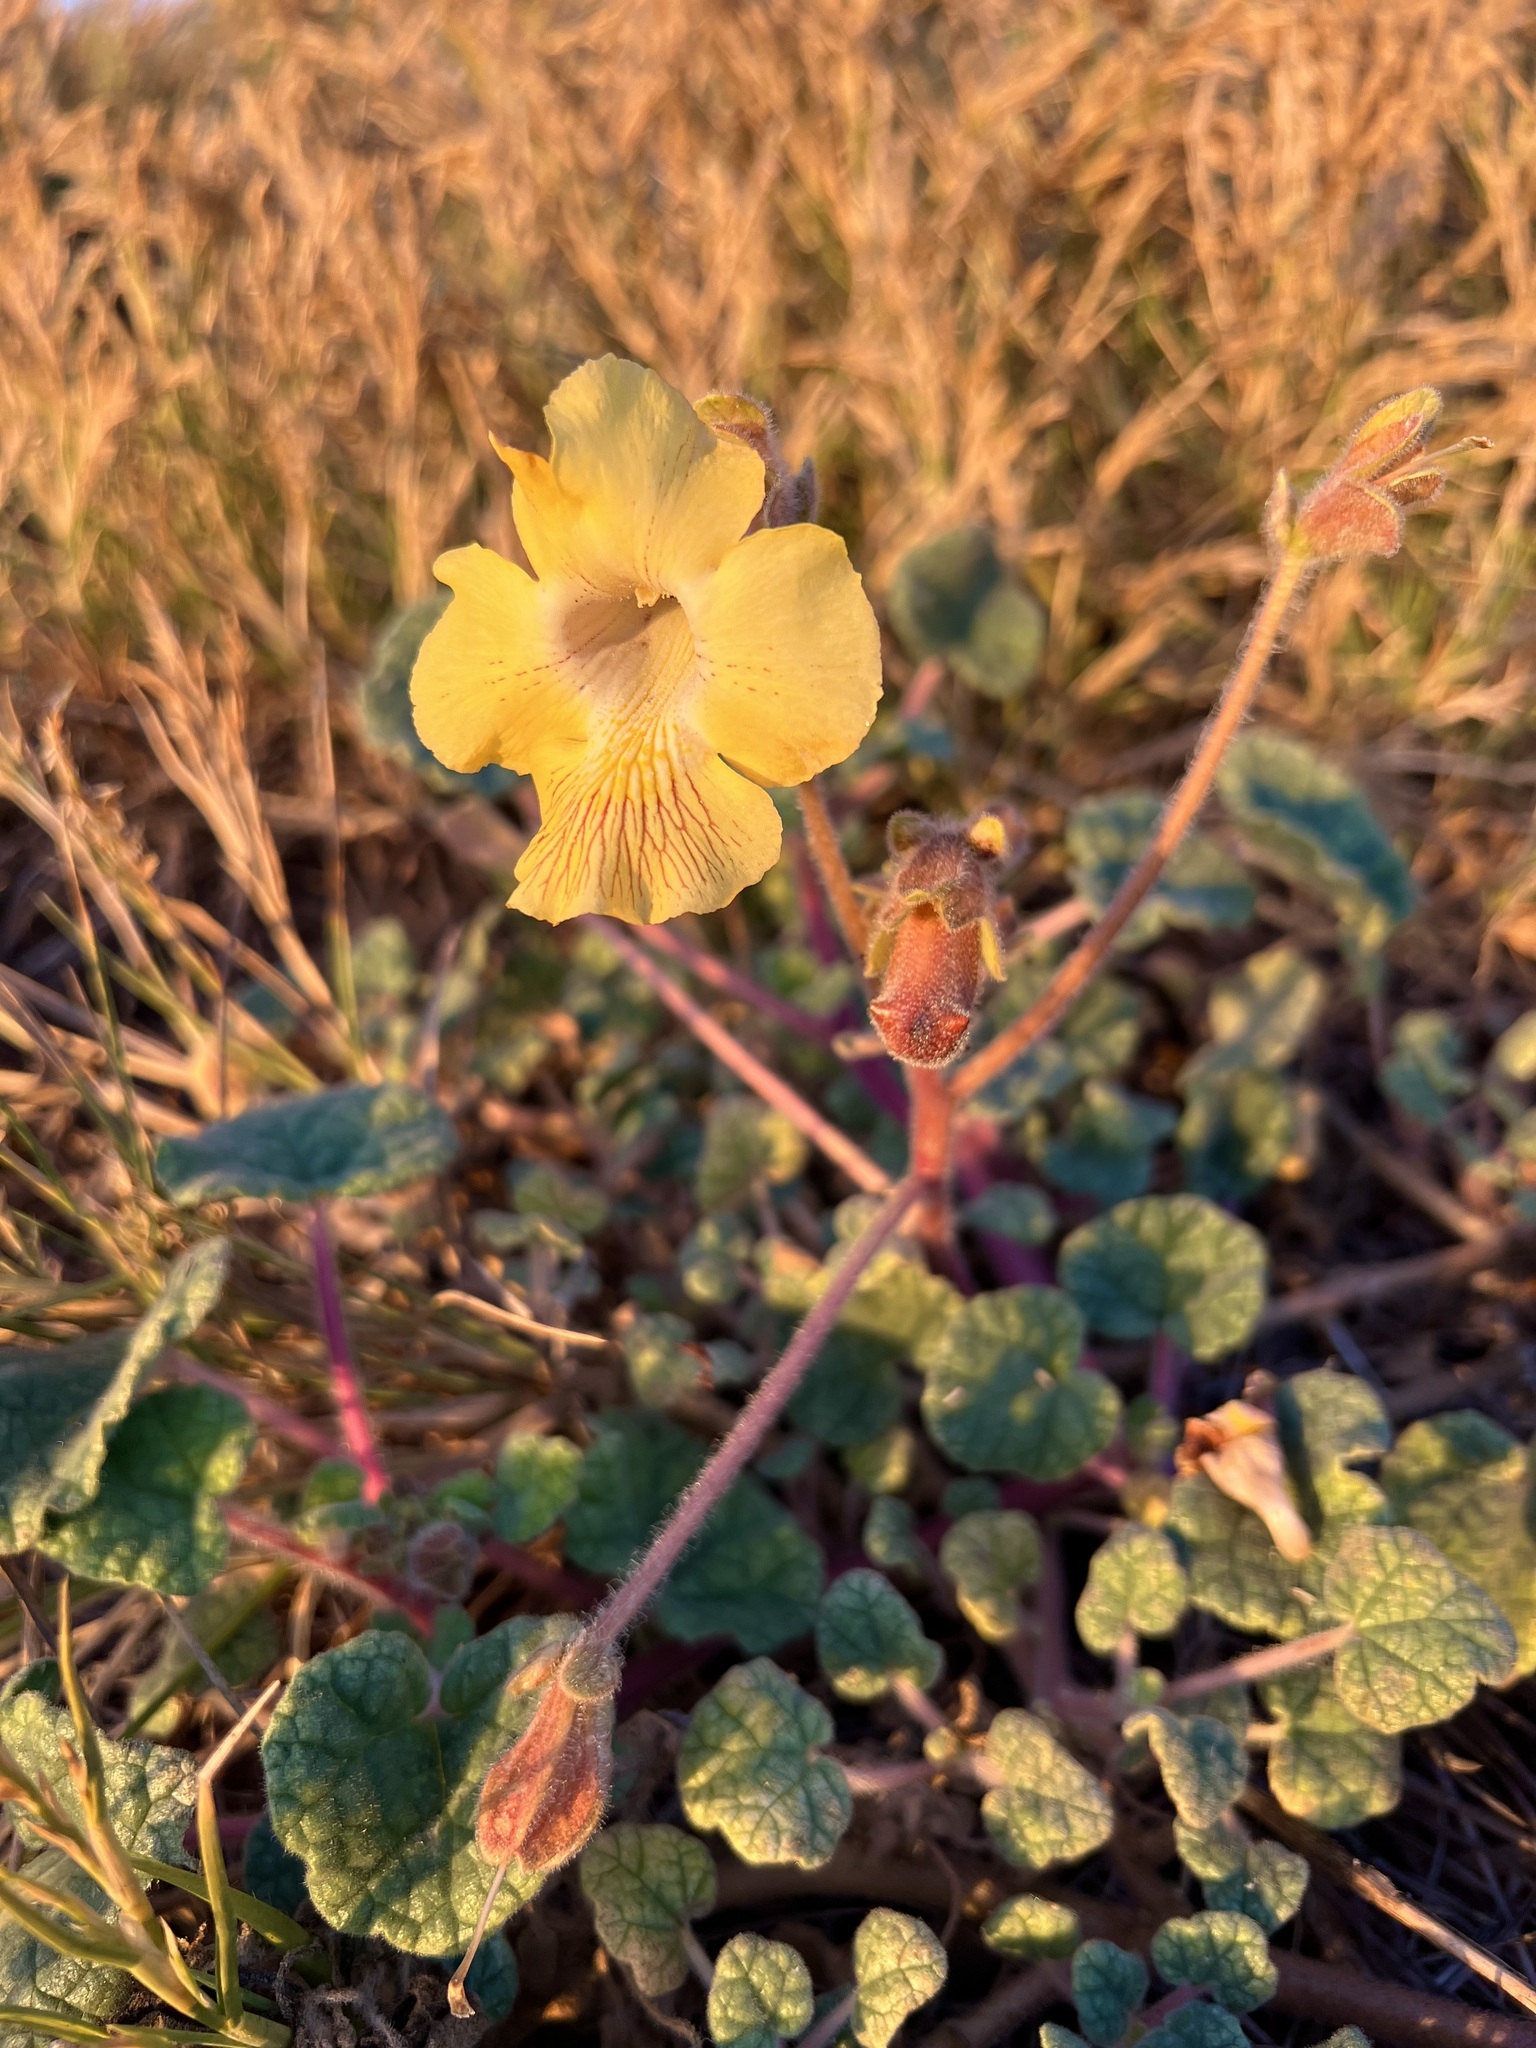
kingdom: Plantae
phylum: Tracheophyta
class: Magnoliopsida
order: Lamiales
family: Martyniaceae
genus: Proboscidea
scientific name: Proboscidea althaeifolia
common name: Desert unicorn-plant
